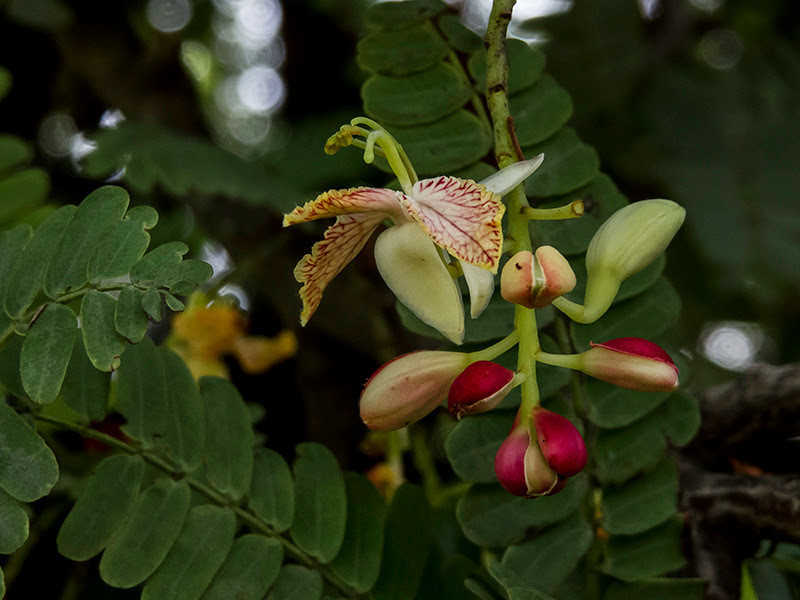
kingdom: Plantae
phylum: Tracheophyta
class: Magnoliopsida
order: Fabales
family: Fabaceae
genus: Tamarindus
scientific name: Tamarindus indica
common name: Tamarind
